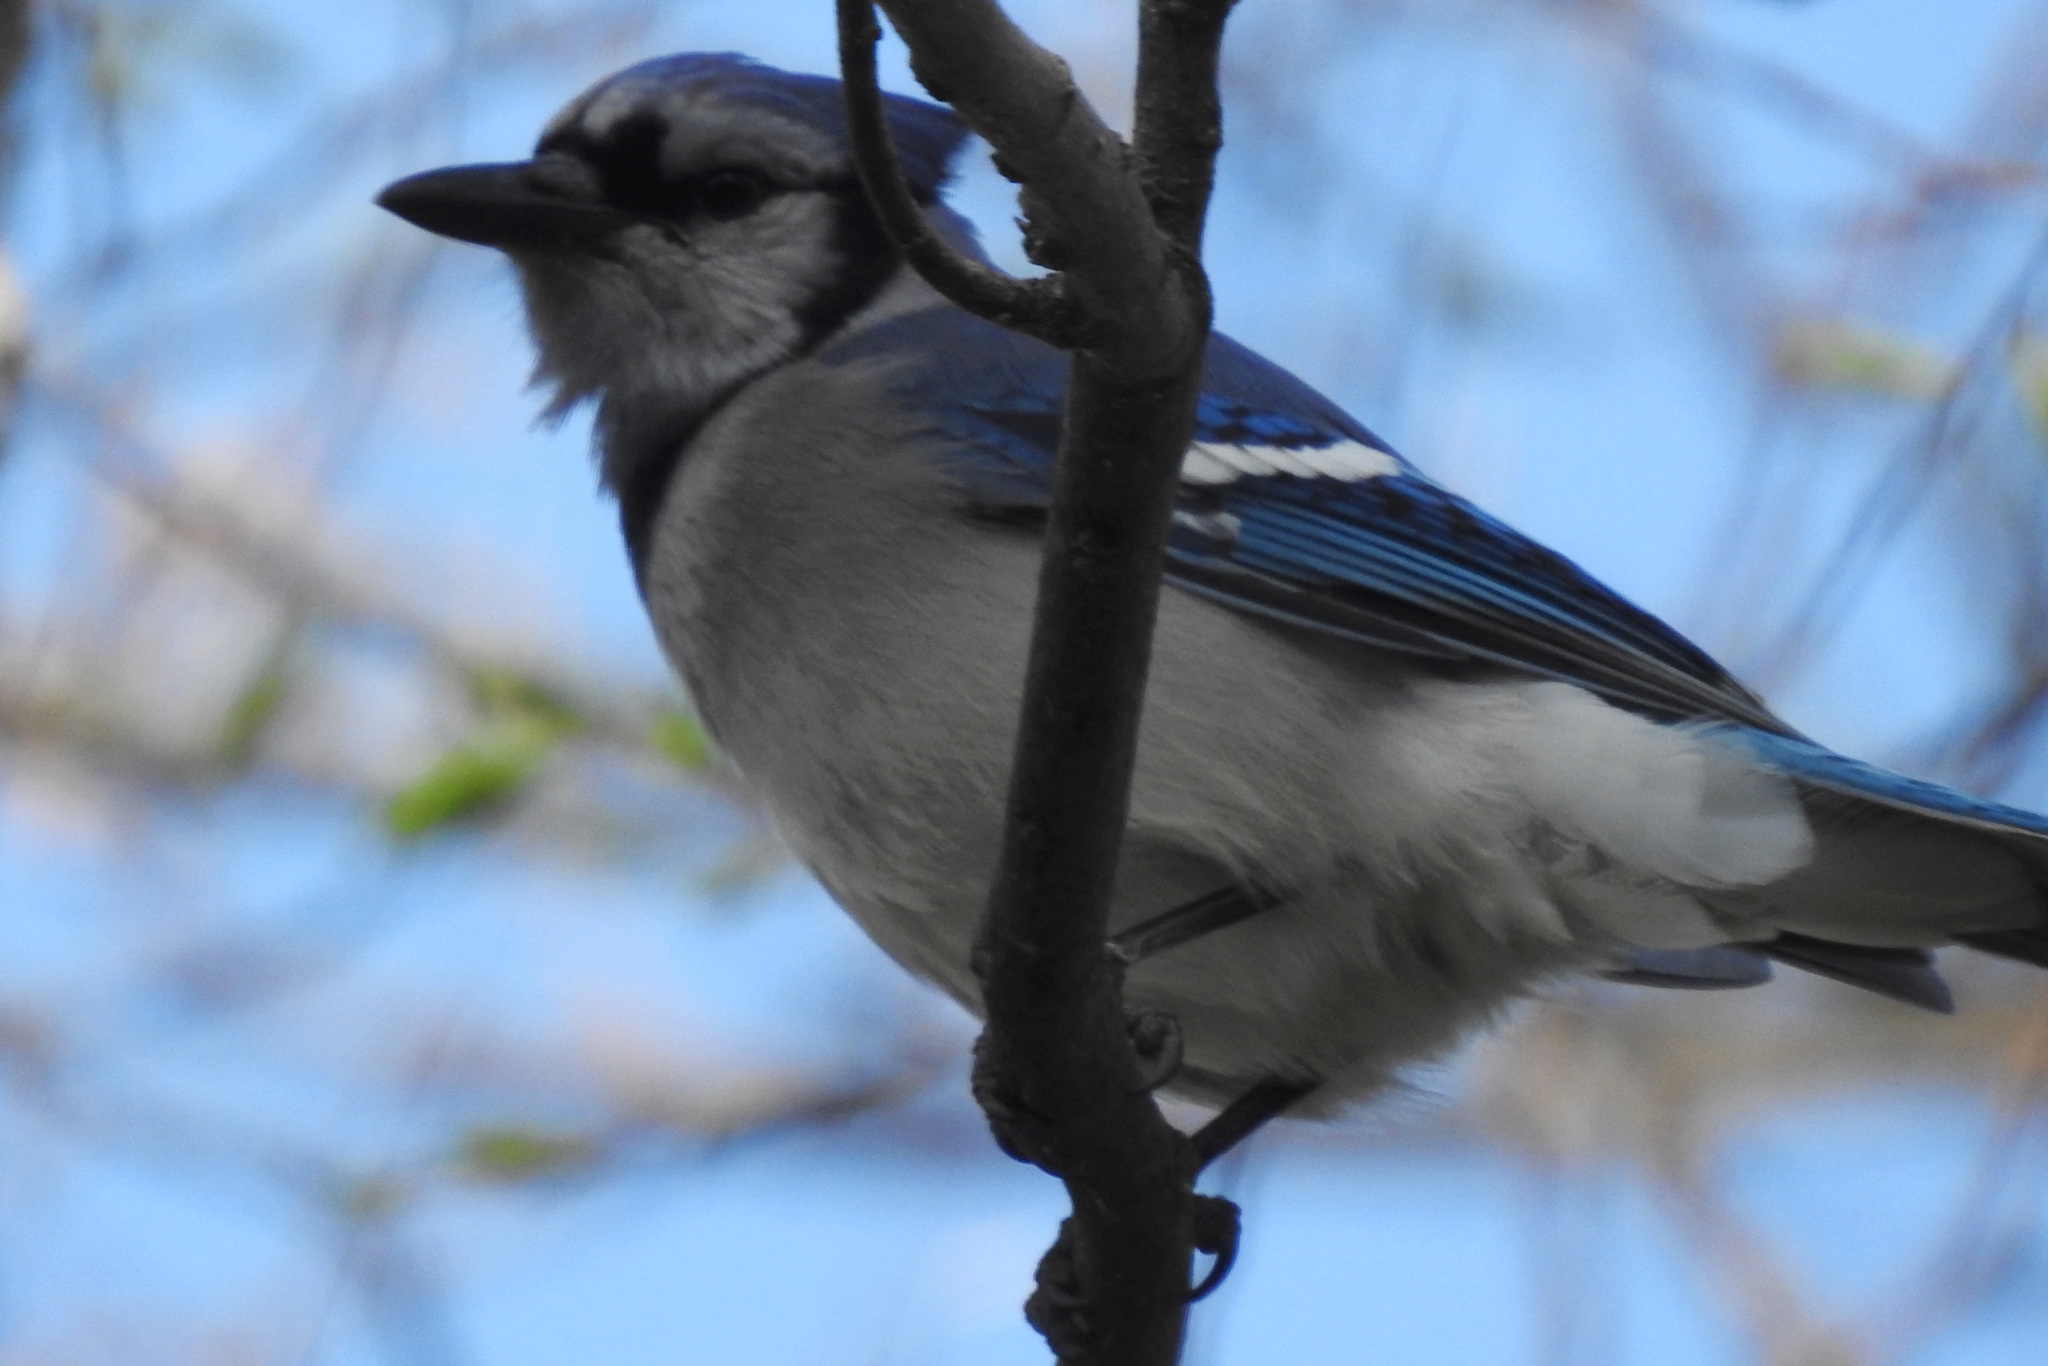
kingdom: Animalia
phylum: Chordata
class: Aves
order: Passeriformes
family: Corvidae
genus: Cyanocitta
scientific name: Cyanocitta cristata
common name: Blue jay
